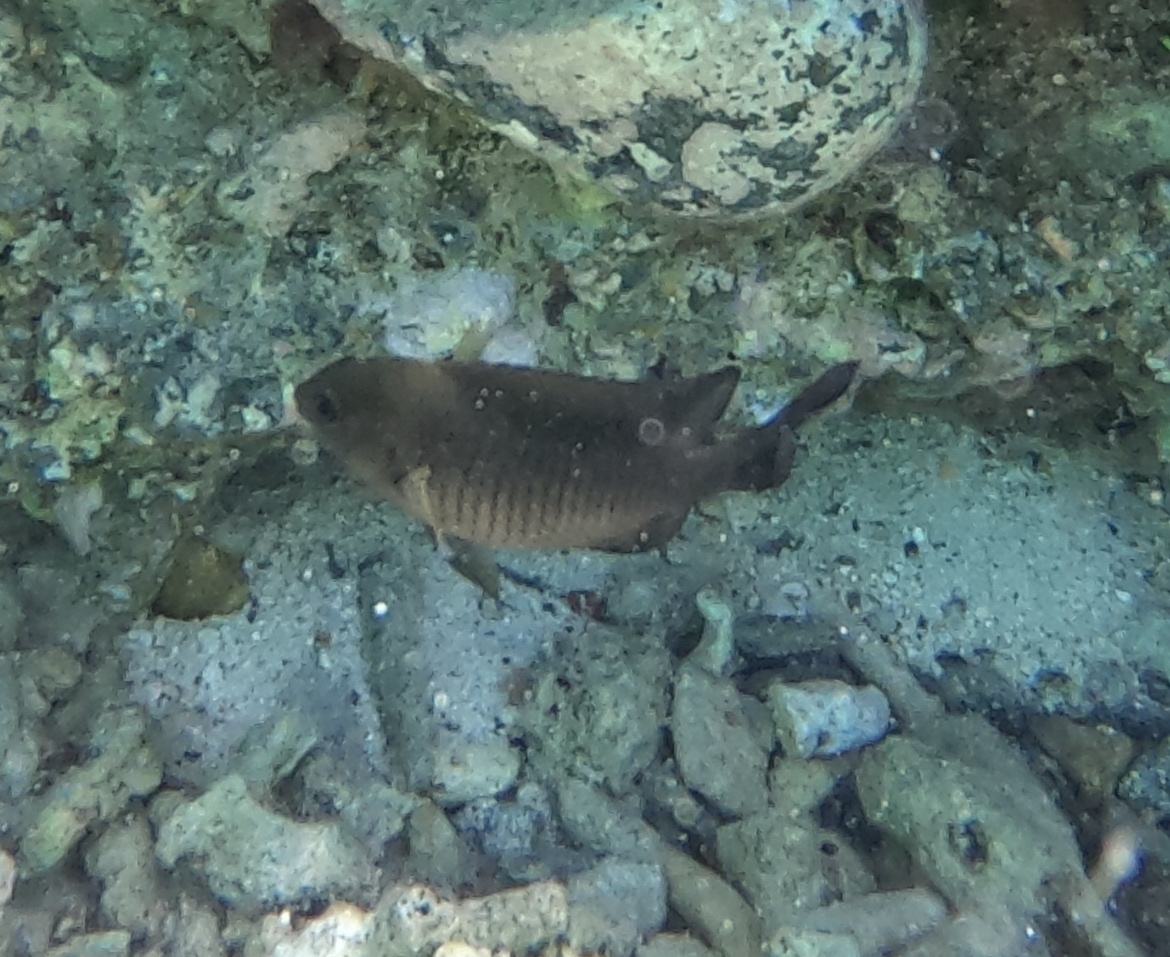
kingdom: Animalia
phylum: Chordata
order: Perciformes
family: Pomacentridae
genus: Stegastes
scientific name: Stegastes adustus
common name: Dusky damselfish
